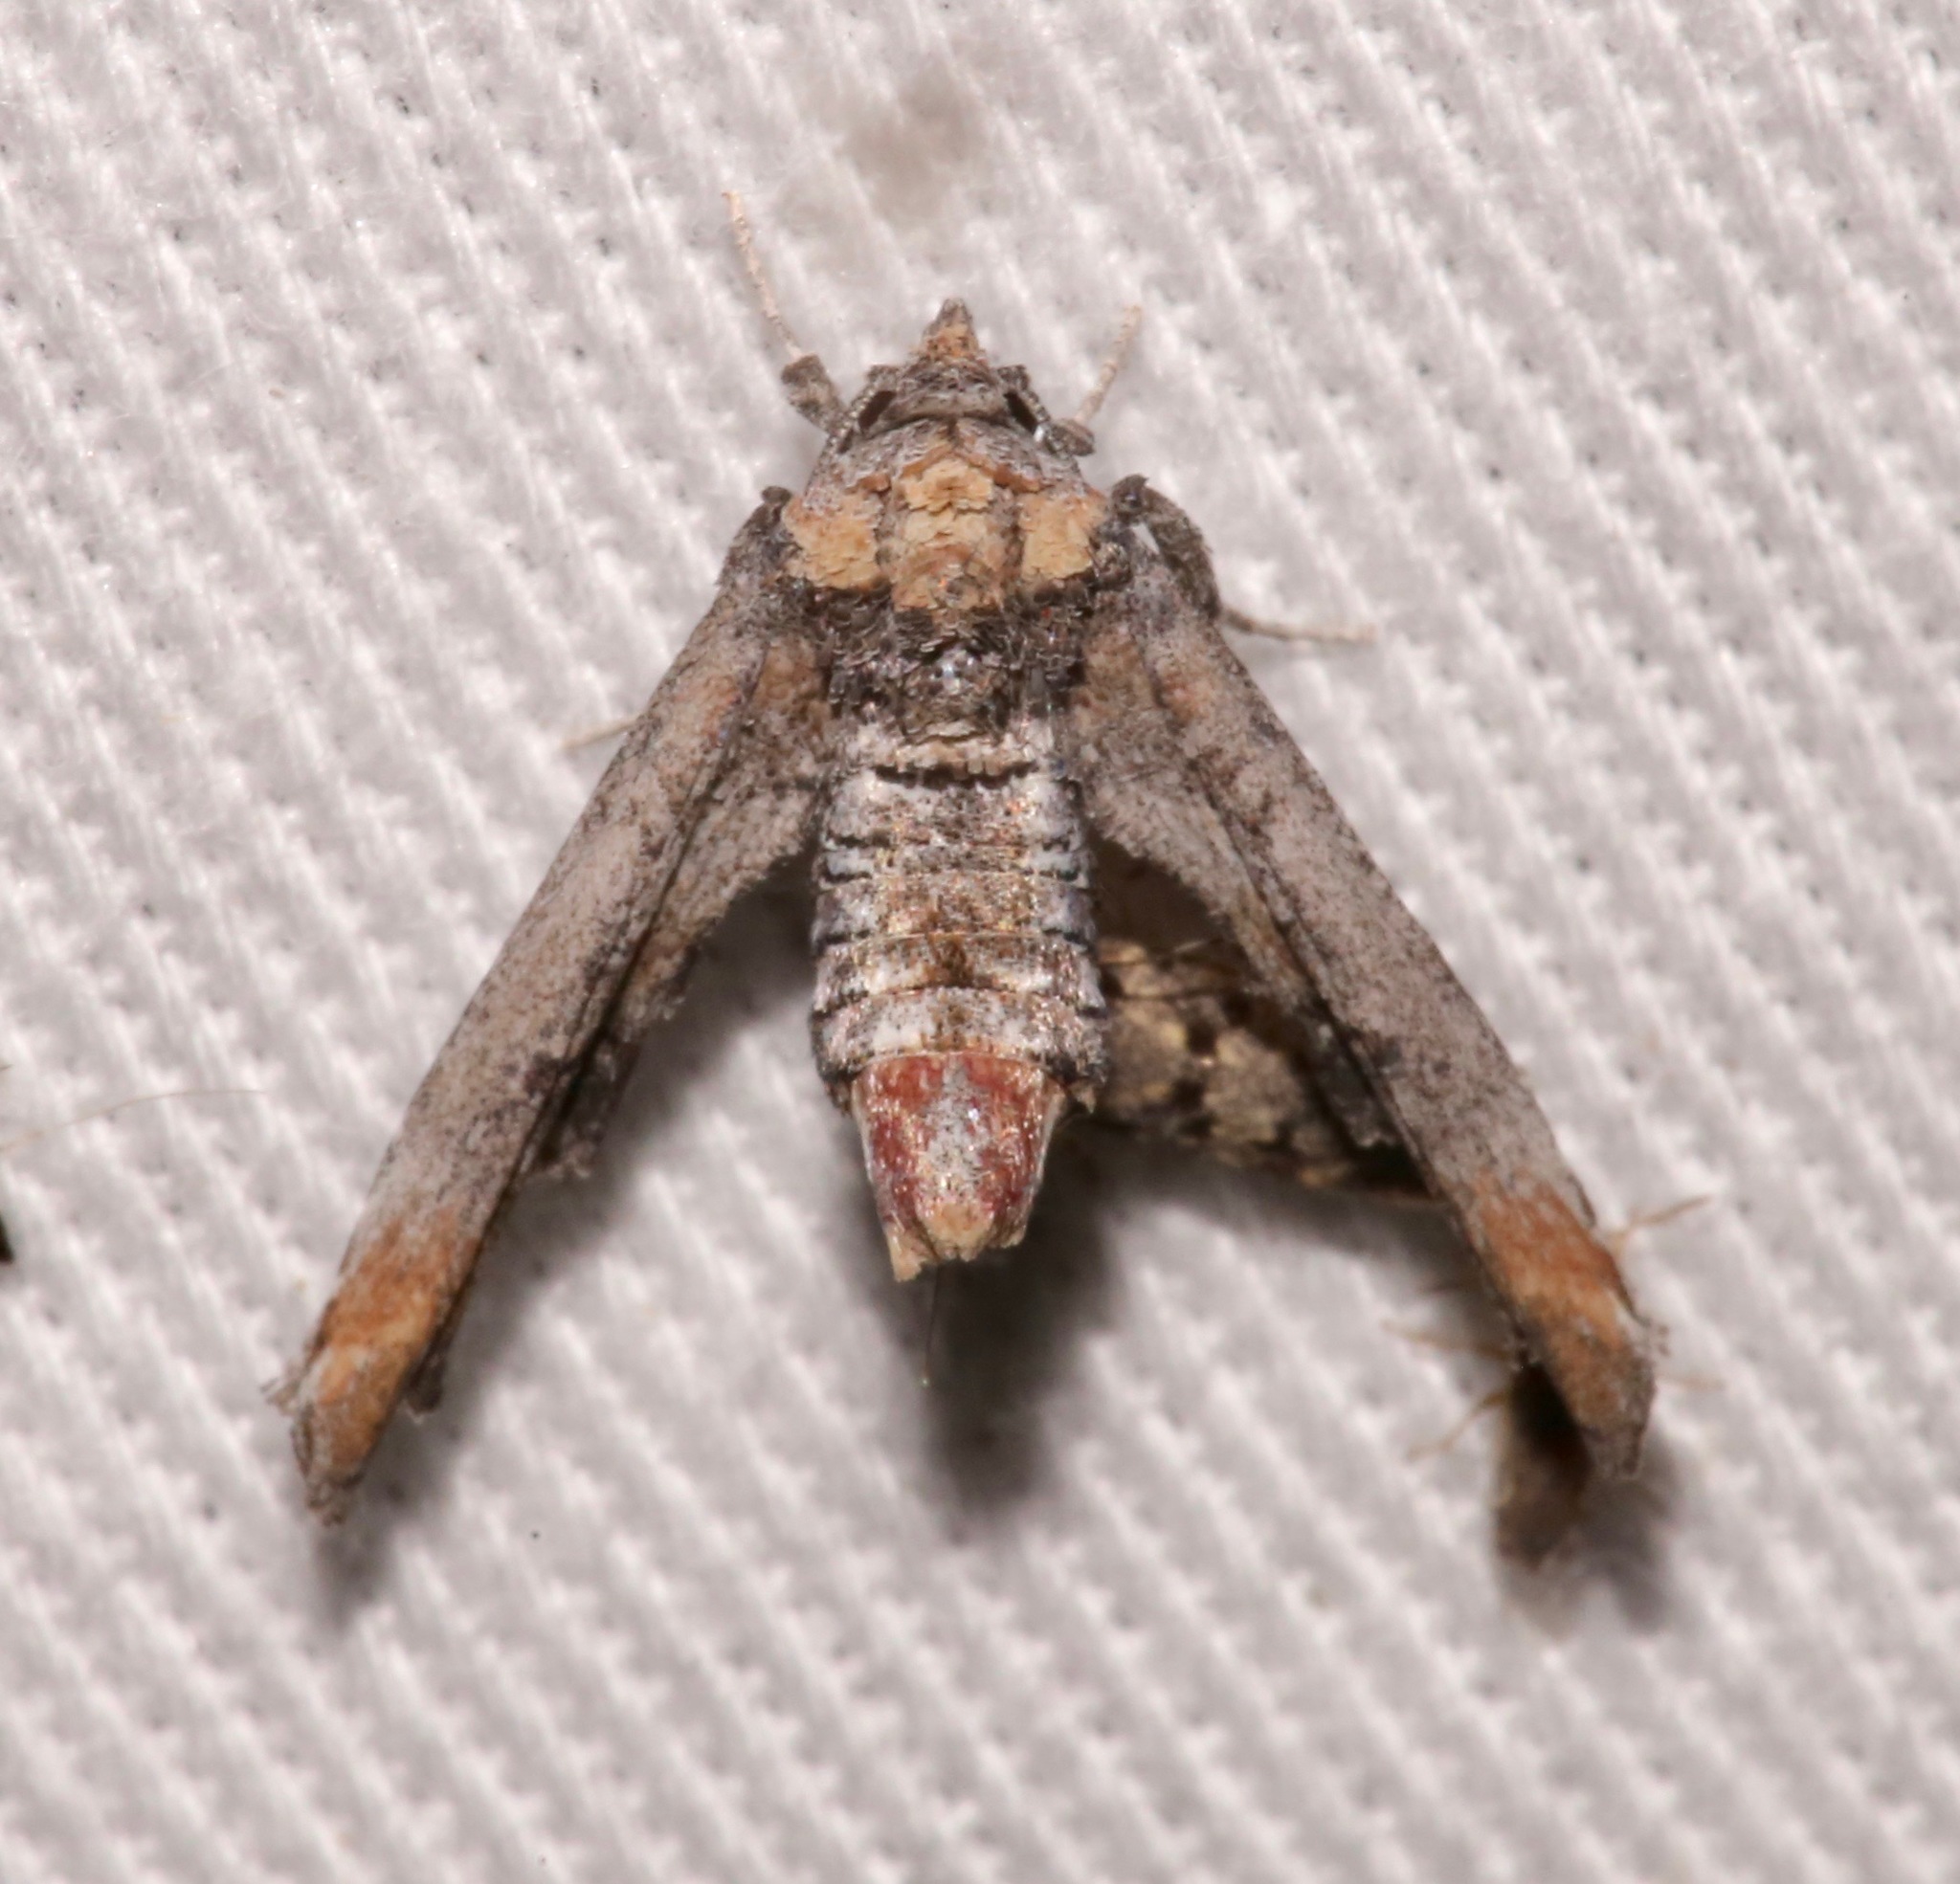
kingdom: Animalia
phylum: Arthropoda
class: Insecta
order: Lepidoptera
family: Euteliidae
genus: Marathyssa
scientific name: Marathyssa inficita
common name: Dark marathyssa moth
